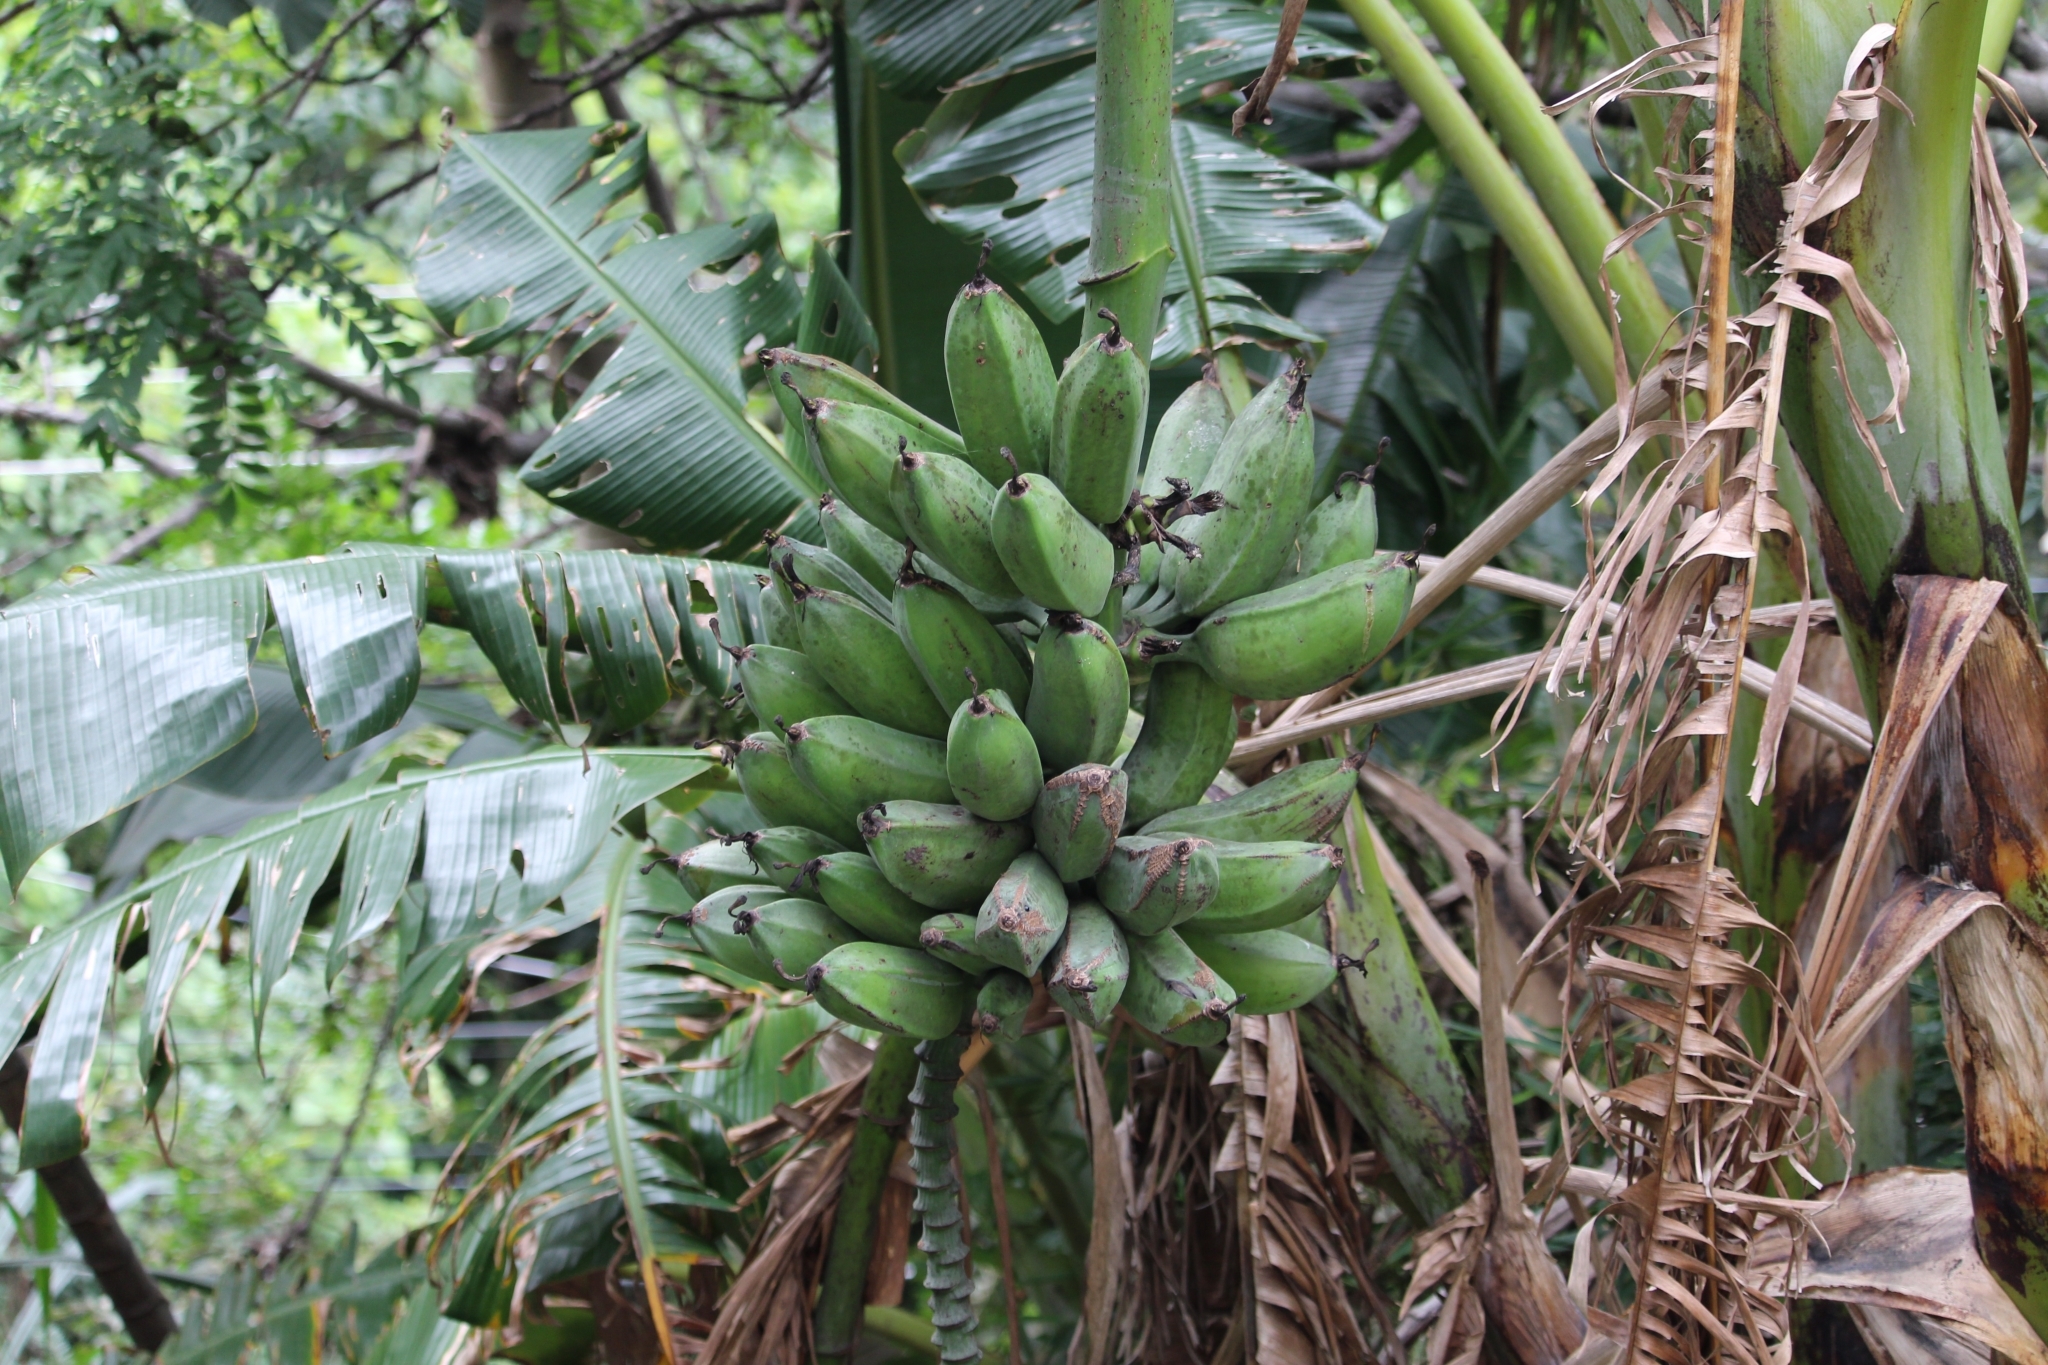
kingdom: Plantae
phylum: Tracheophyta
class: Liliopsida
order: Zingiberales
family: Musaceae
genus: Musa
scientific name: Musa paradisiaca
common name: French plantain
